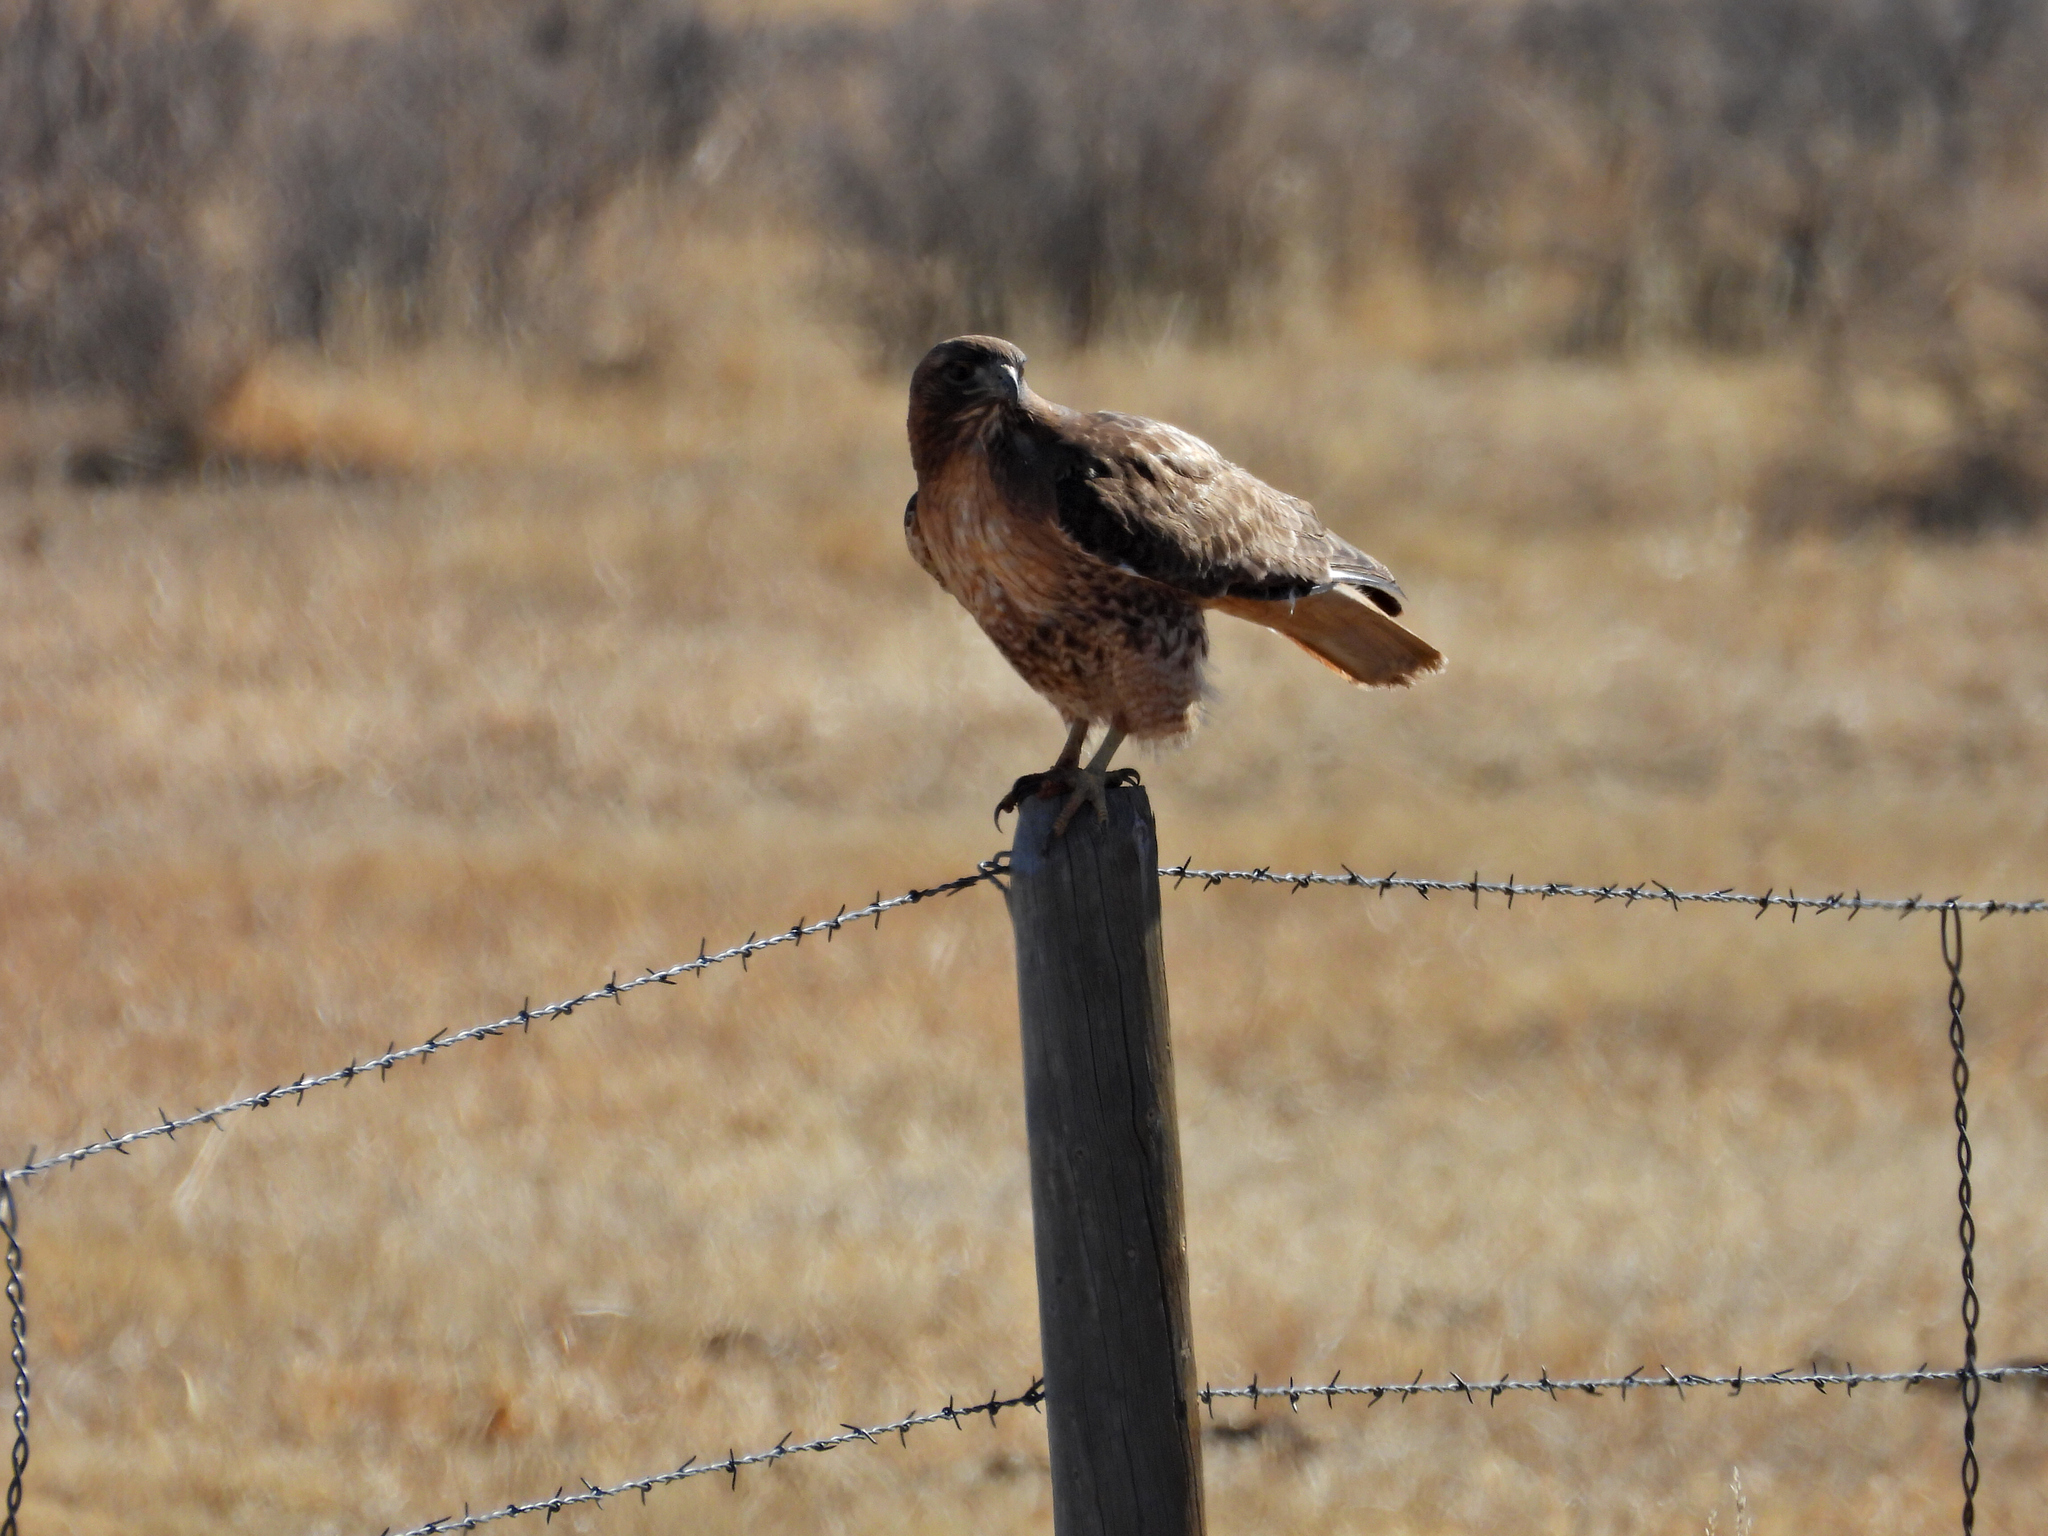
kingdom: Animalia
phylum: Chordata
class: Aves
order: Accipitriformes
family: Accipitridae
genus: Buteo
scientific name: Buteo jamaicensis
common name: Red-tailed hawk
